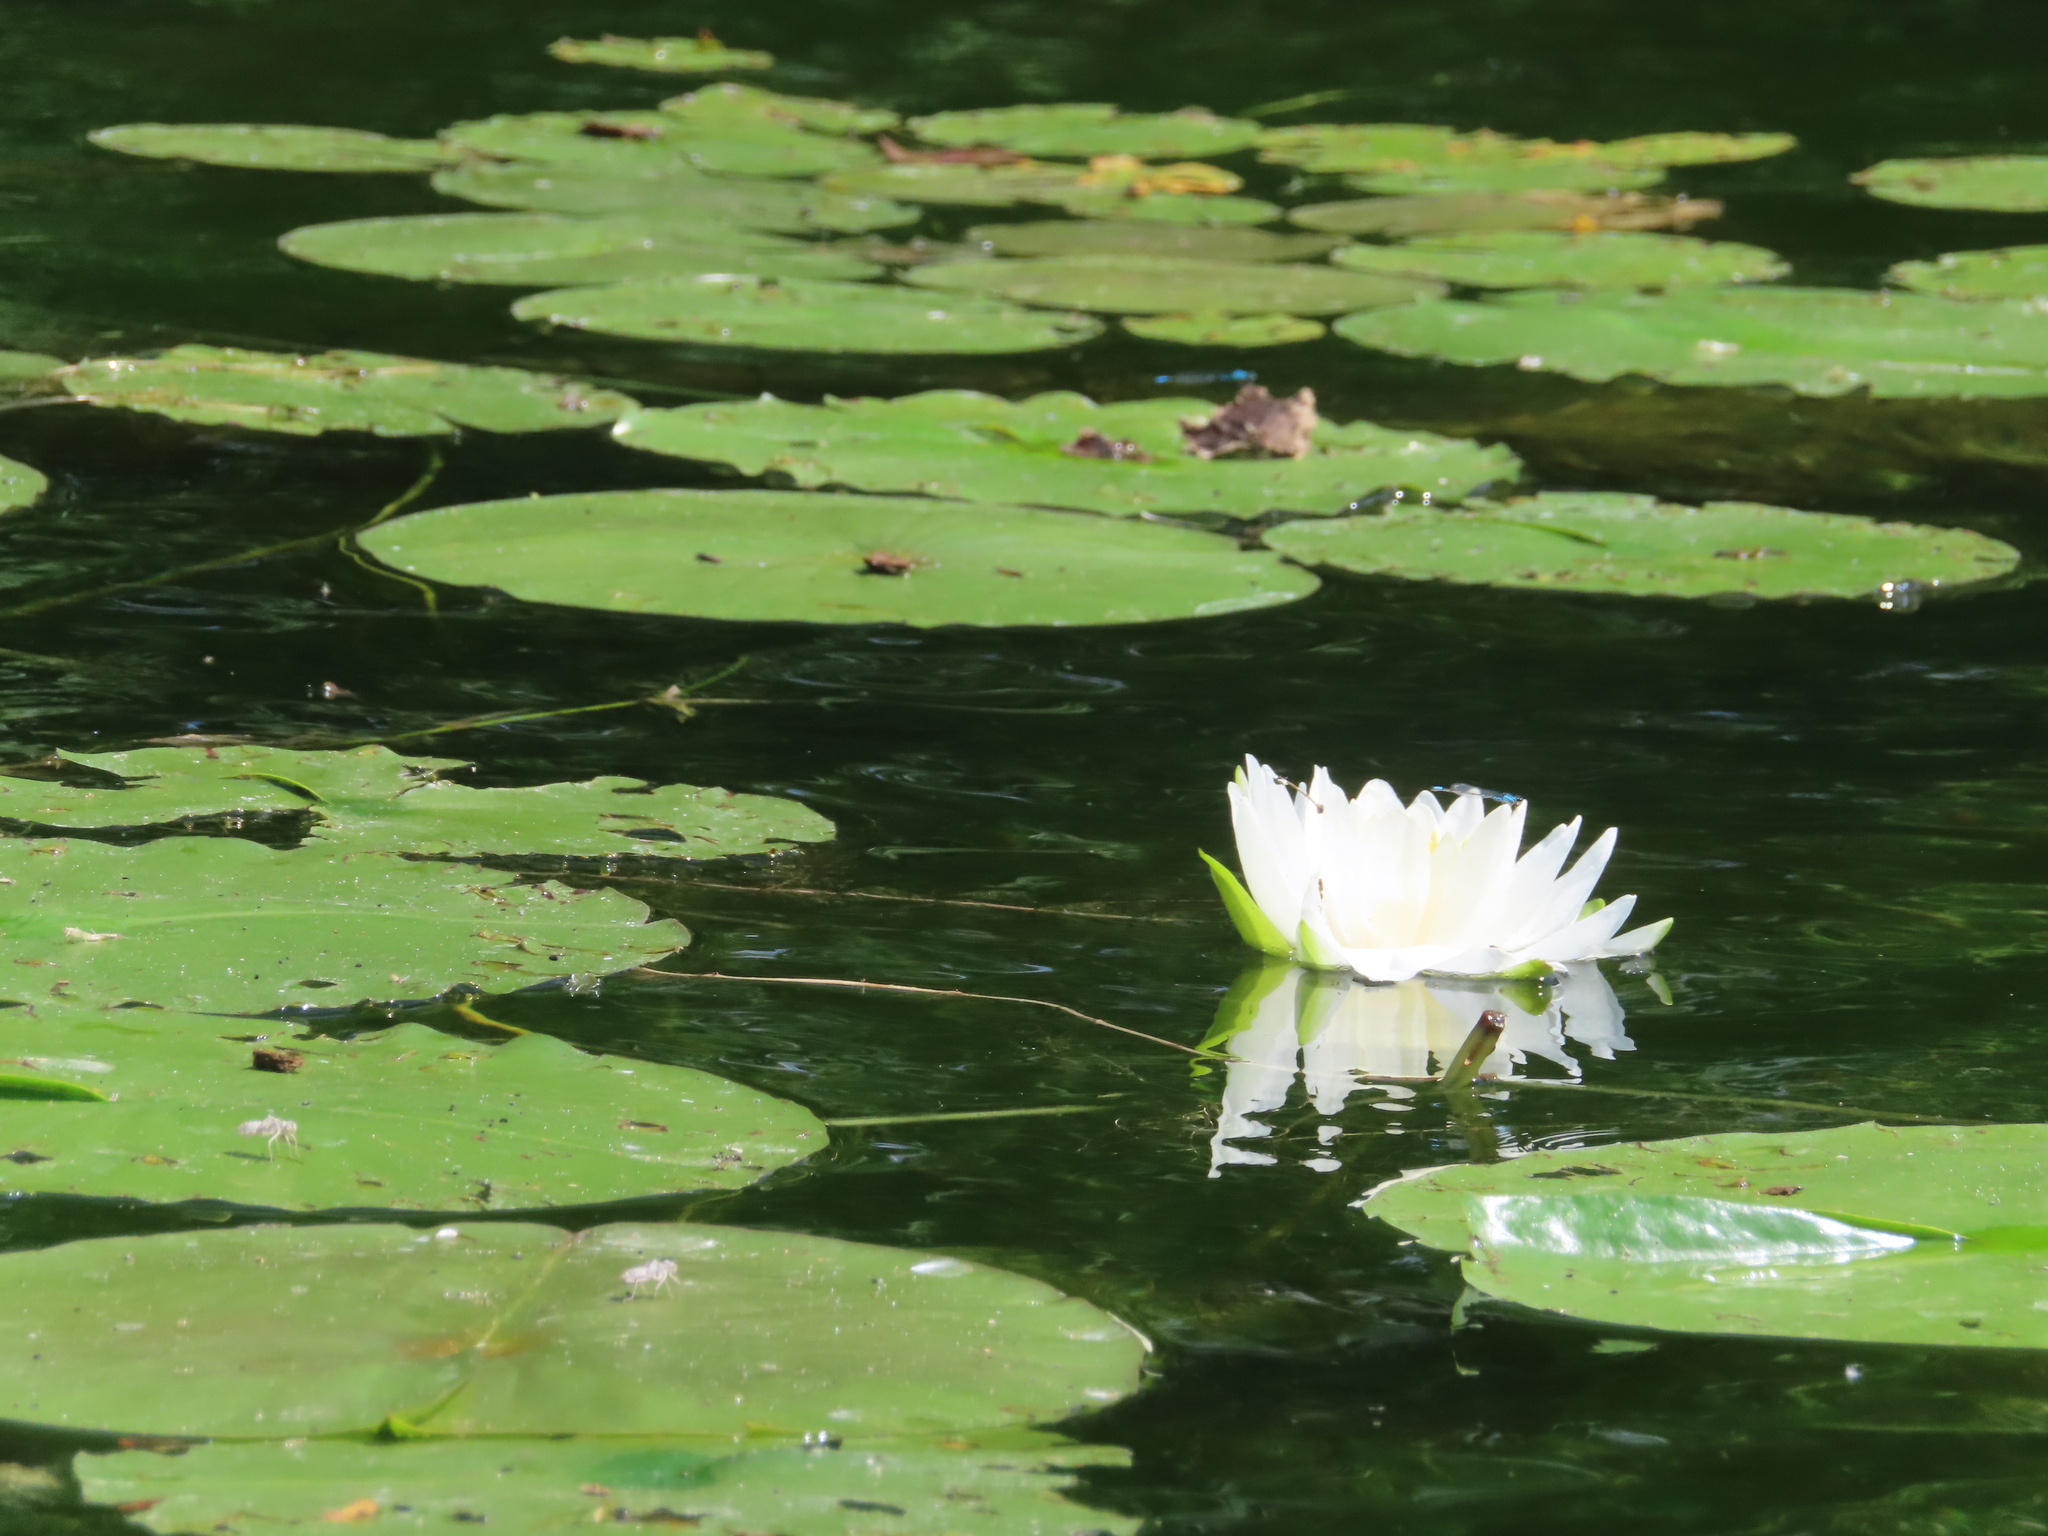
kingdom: Plantae
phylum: Tracheophyta
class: Magnoliopsida
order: Nymphaeales
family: Nymphaeaceae
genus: Nymphaea
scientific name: Nymphaea odorata
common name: Fragrant water-lily
